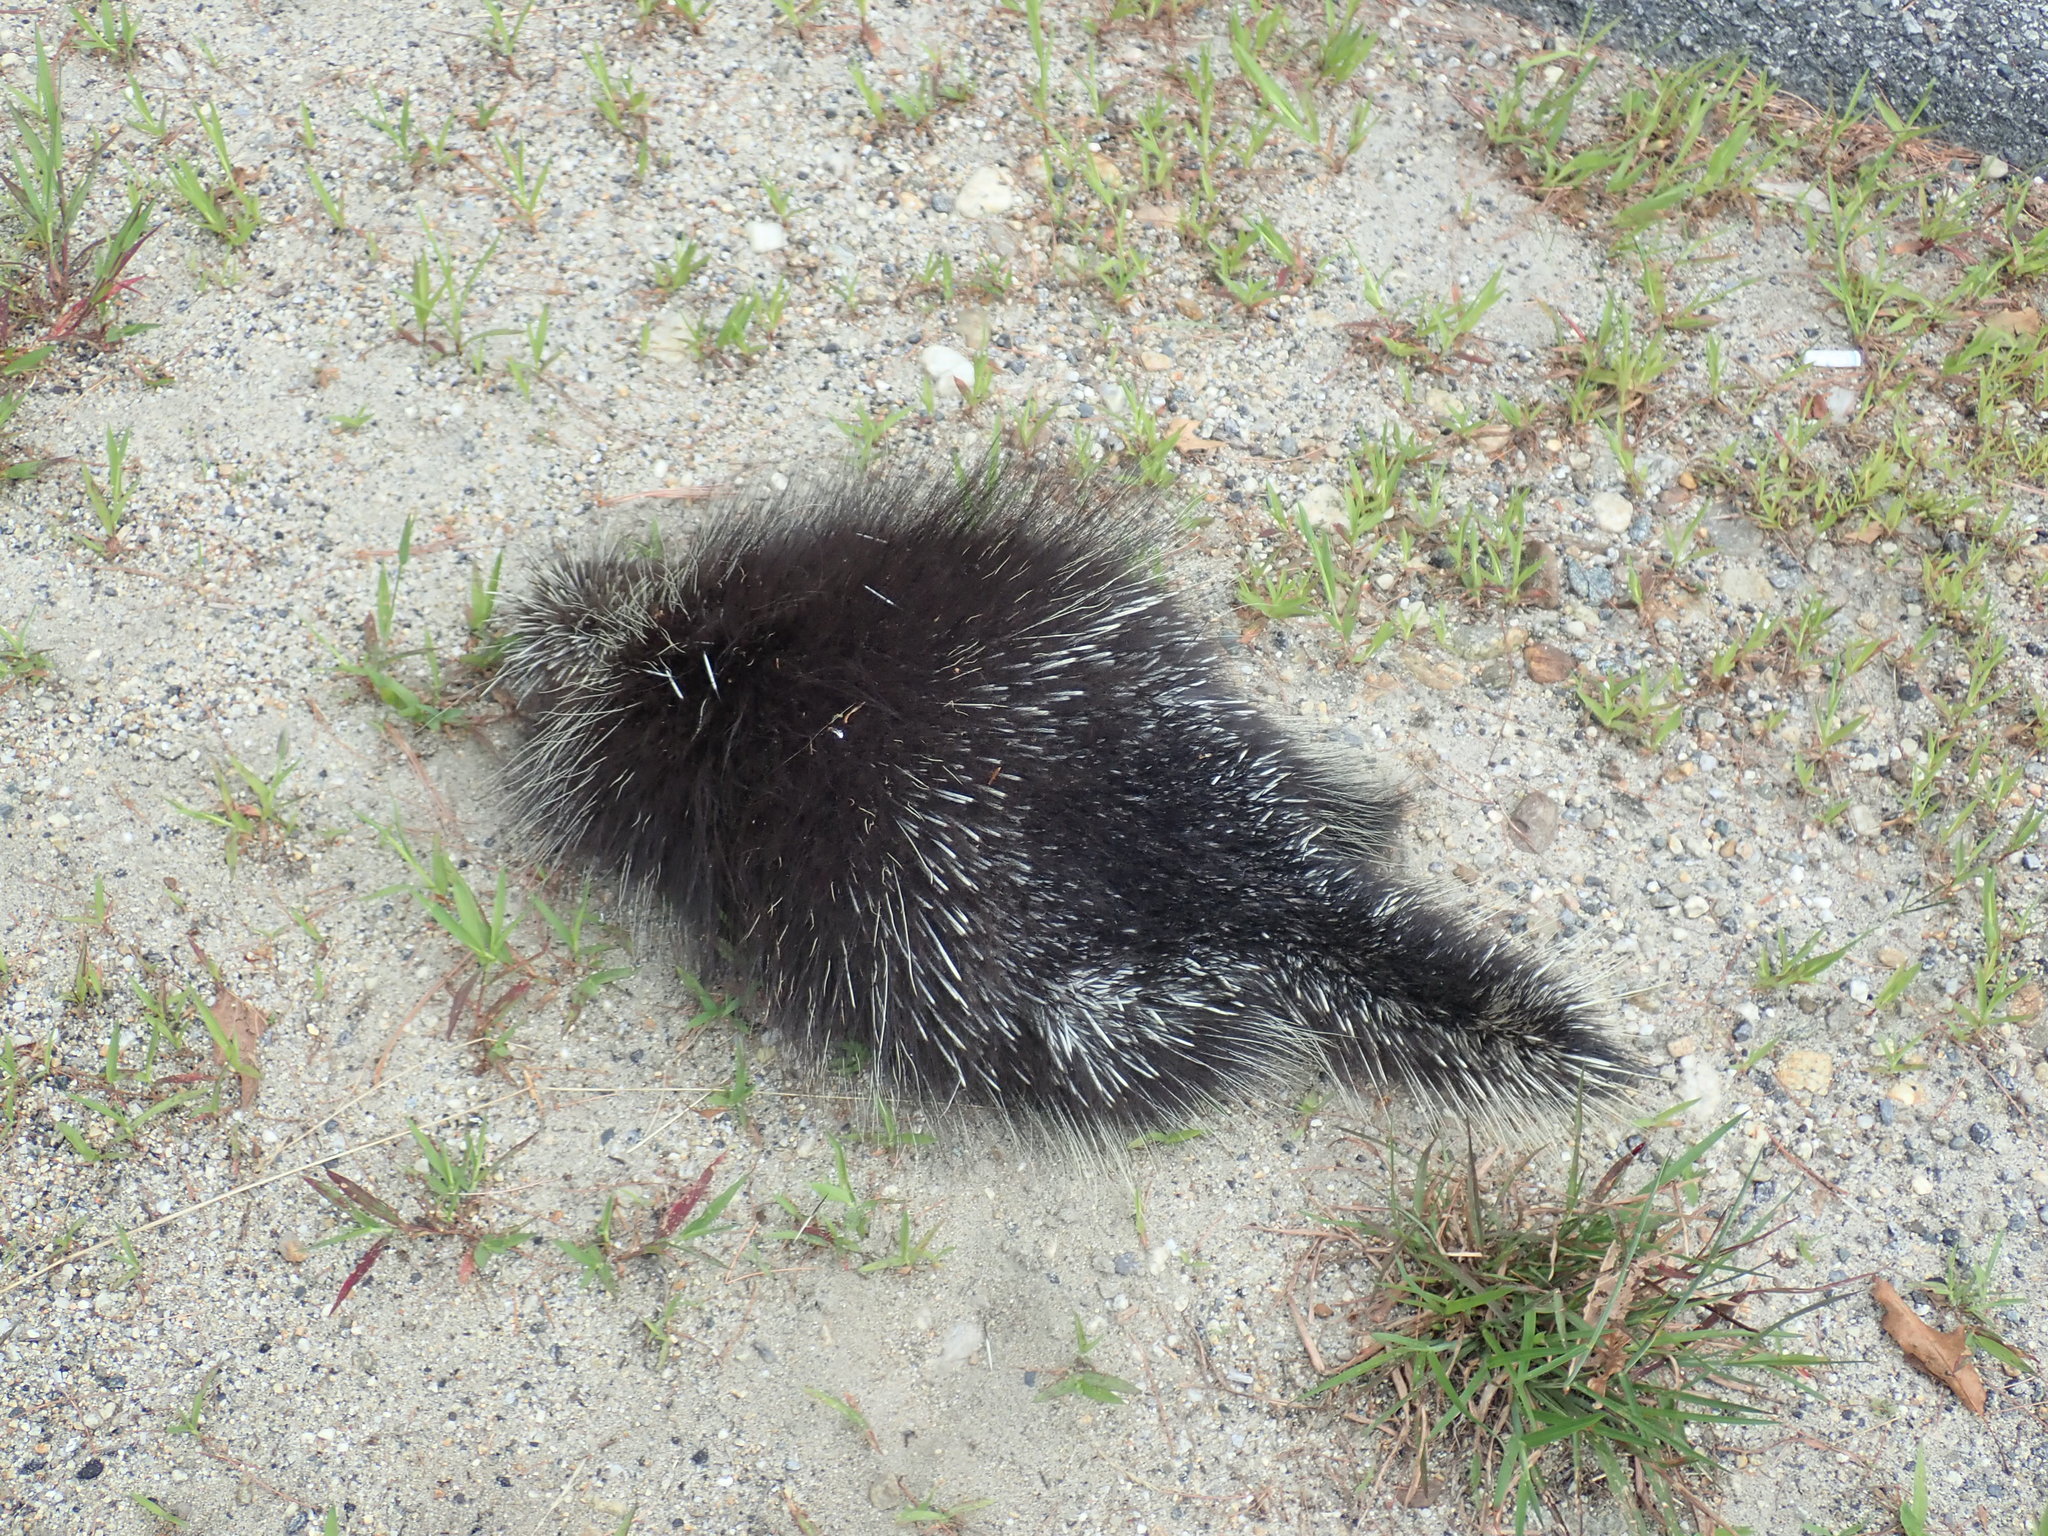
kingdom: Animalia
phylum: Chordata
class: Mammalia
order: Rodentia
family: Erethizontidae
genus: Erethizon
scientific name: Erethizon dorsatus
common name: North american porcupine
